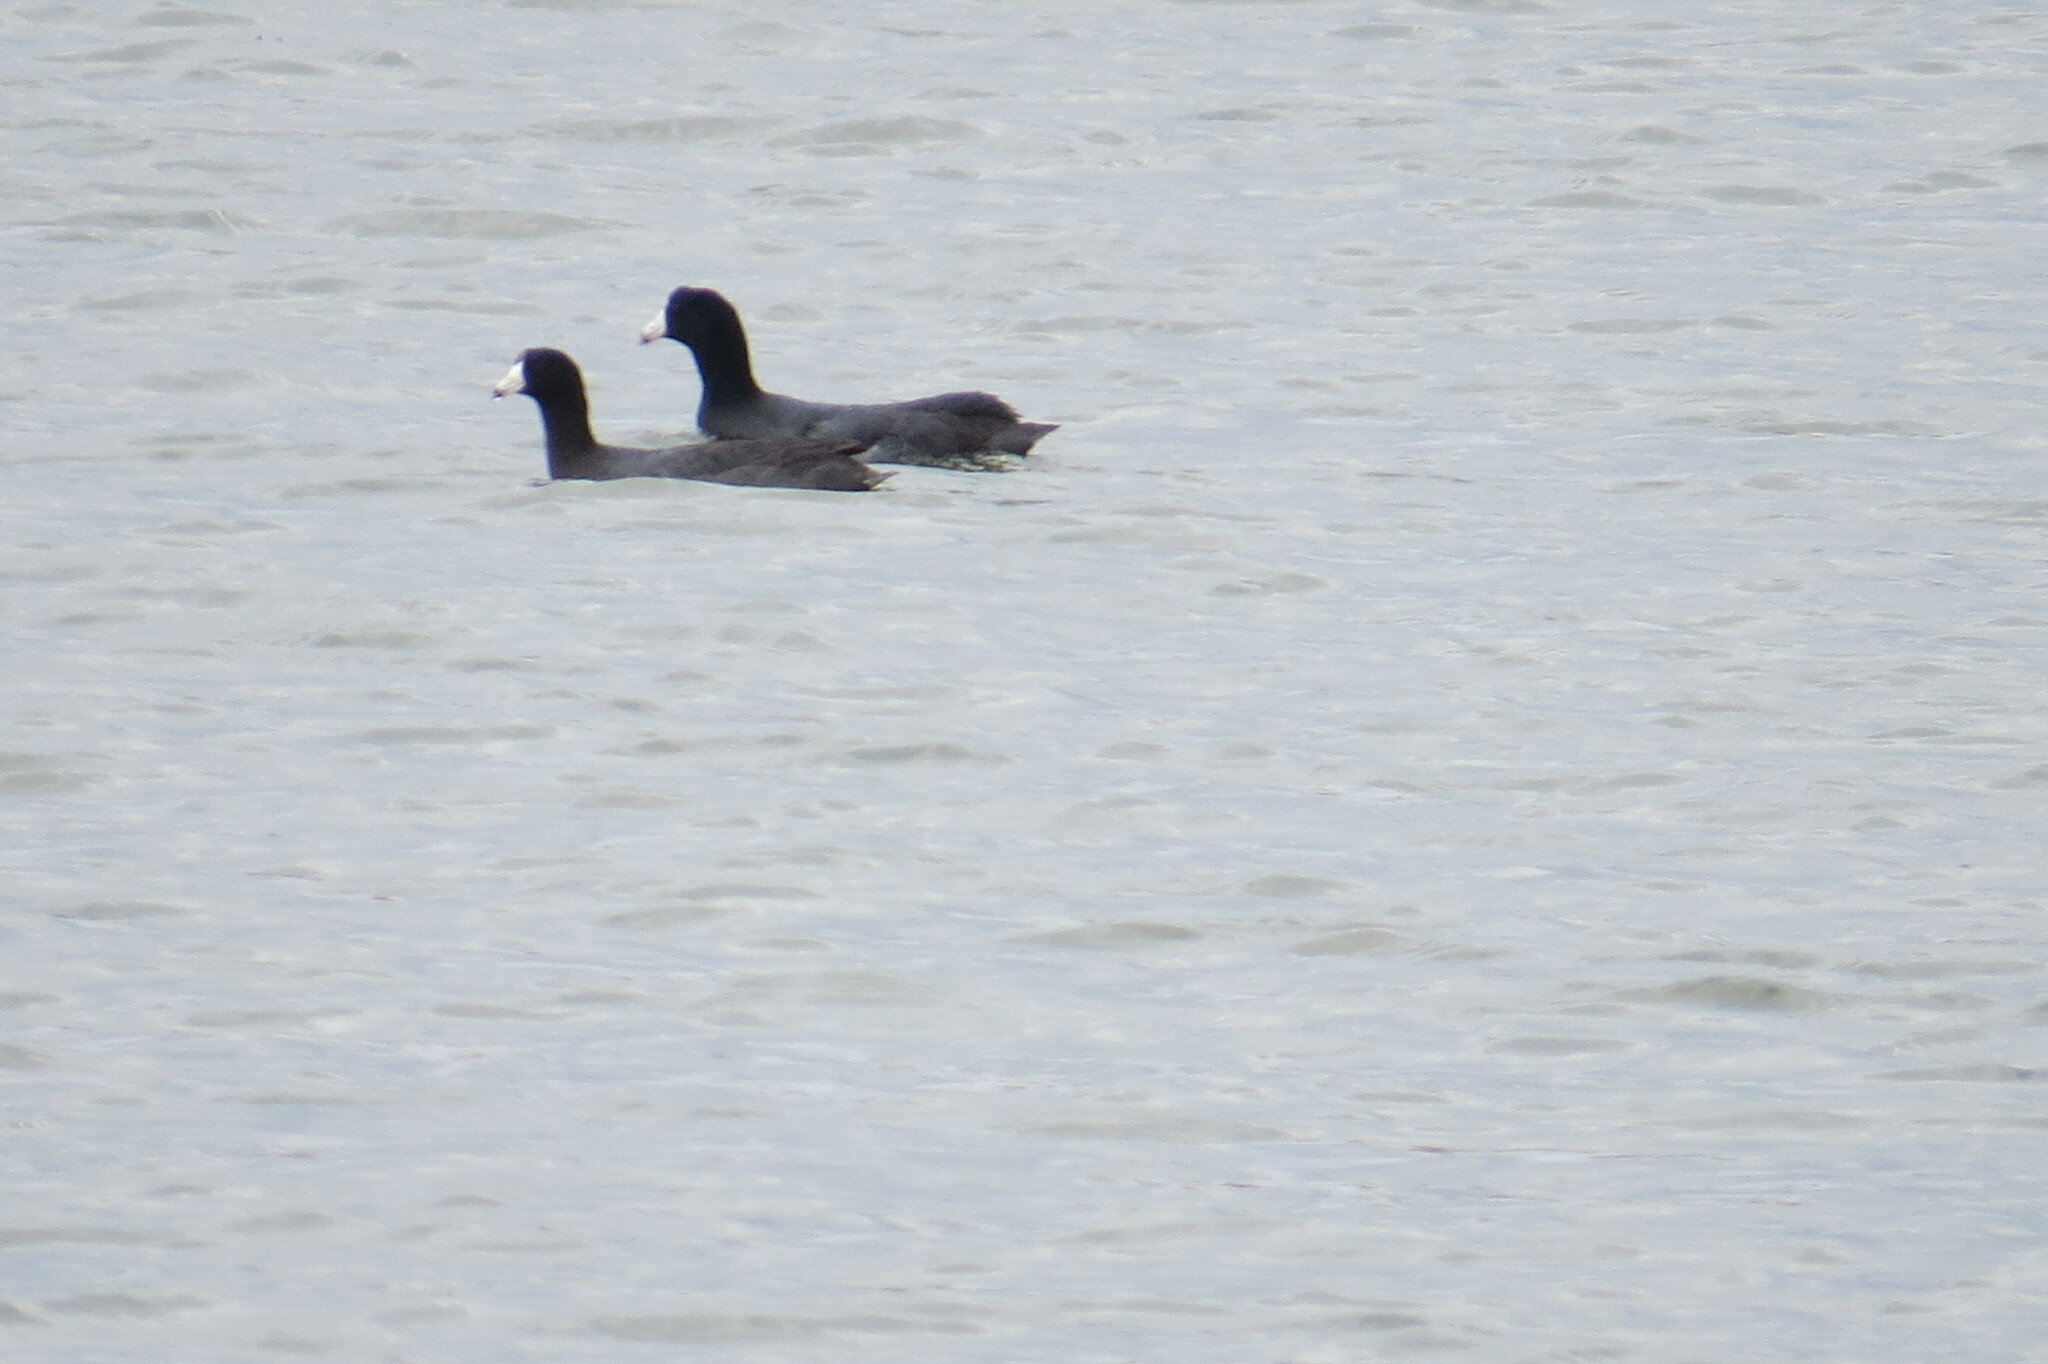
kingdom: Animalia
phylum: Chordata
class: Aves
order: Gruiformes
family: Rallidae
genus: Fulica
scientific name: Fulica americana
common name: American coot
